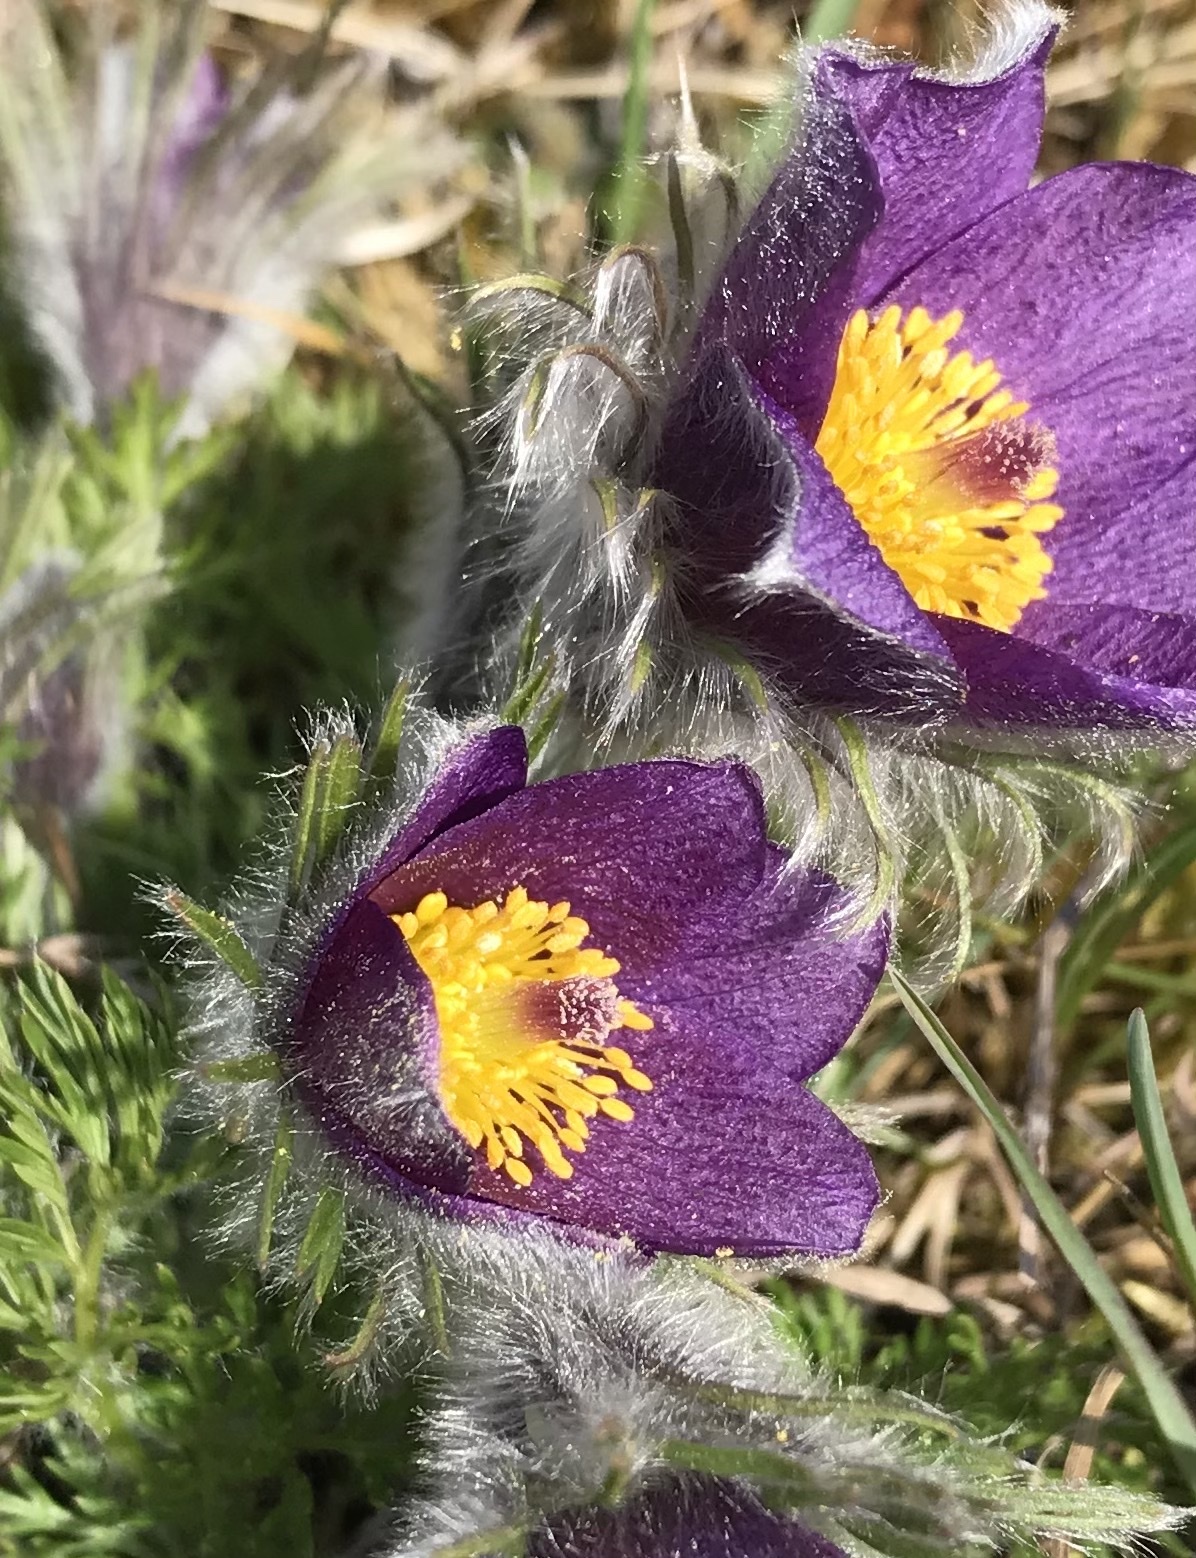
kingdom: Plantae
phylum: Tracheophyta
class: Magnoliopsida
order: Ranunculales
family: Ranunculaceae
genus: Pulsatilla
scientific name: Pulsatilla vulgaris
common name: Pasqueflower
